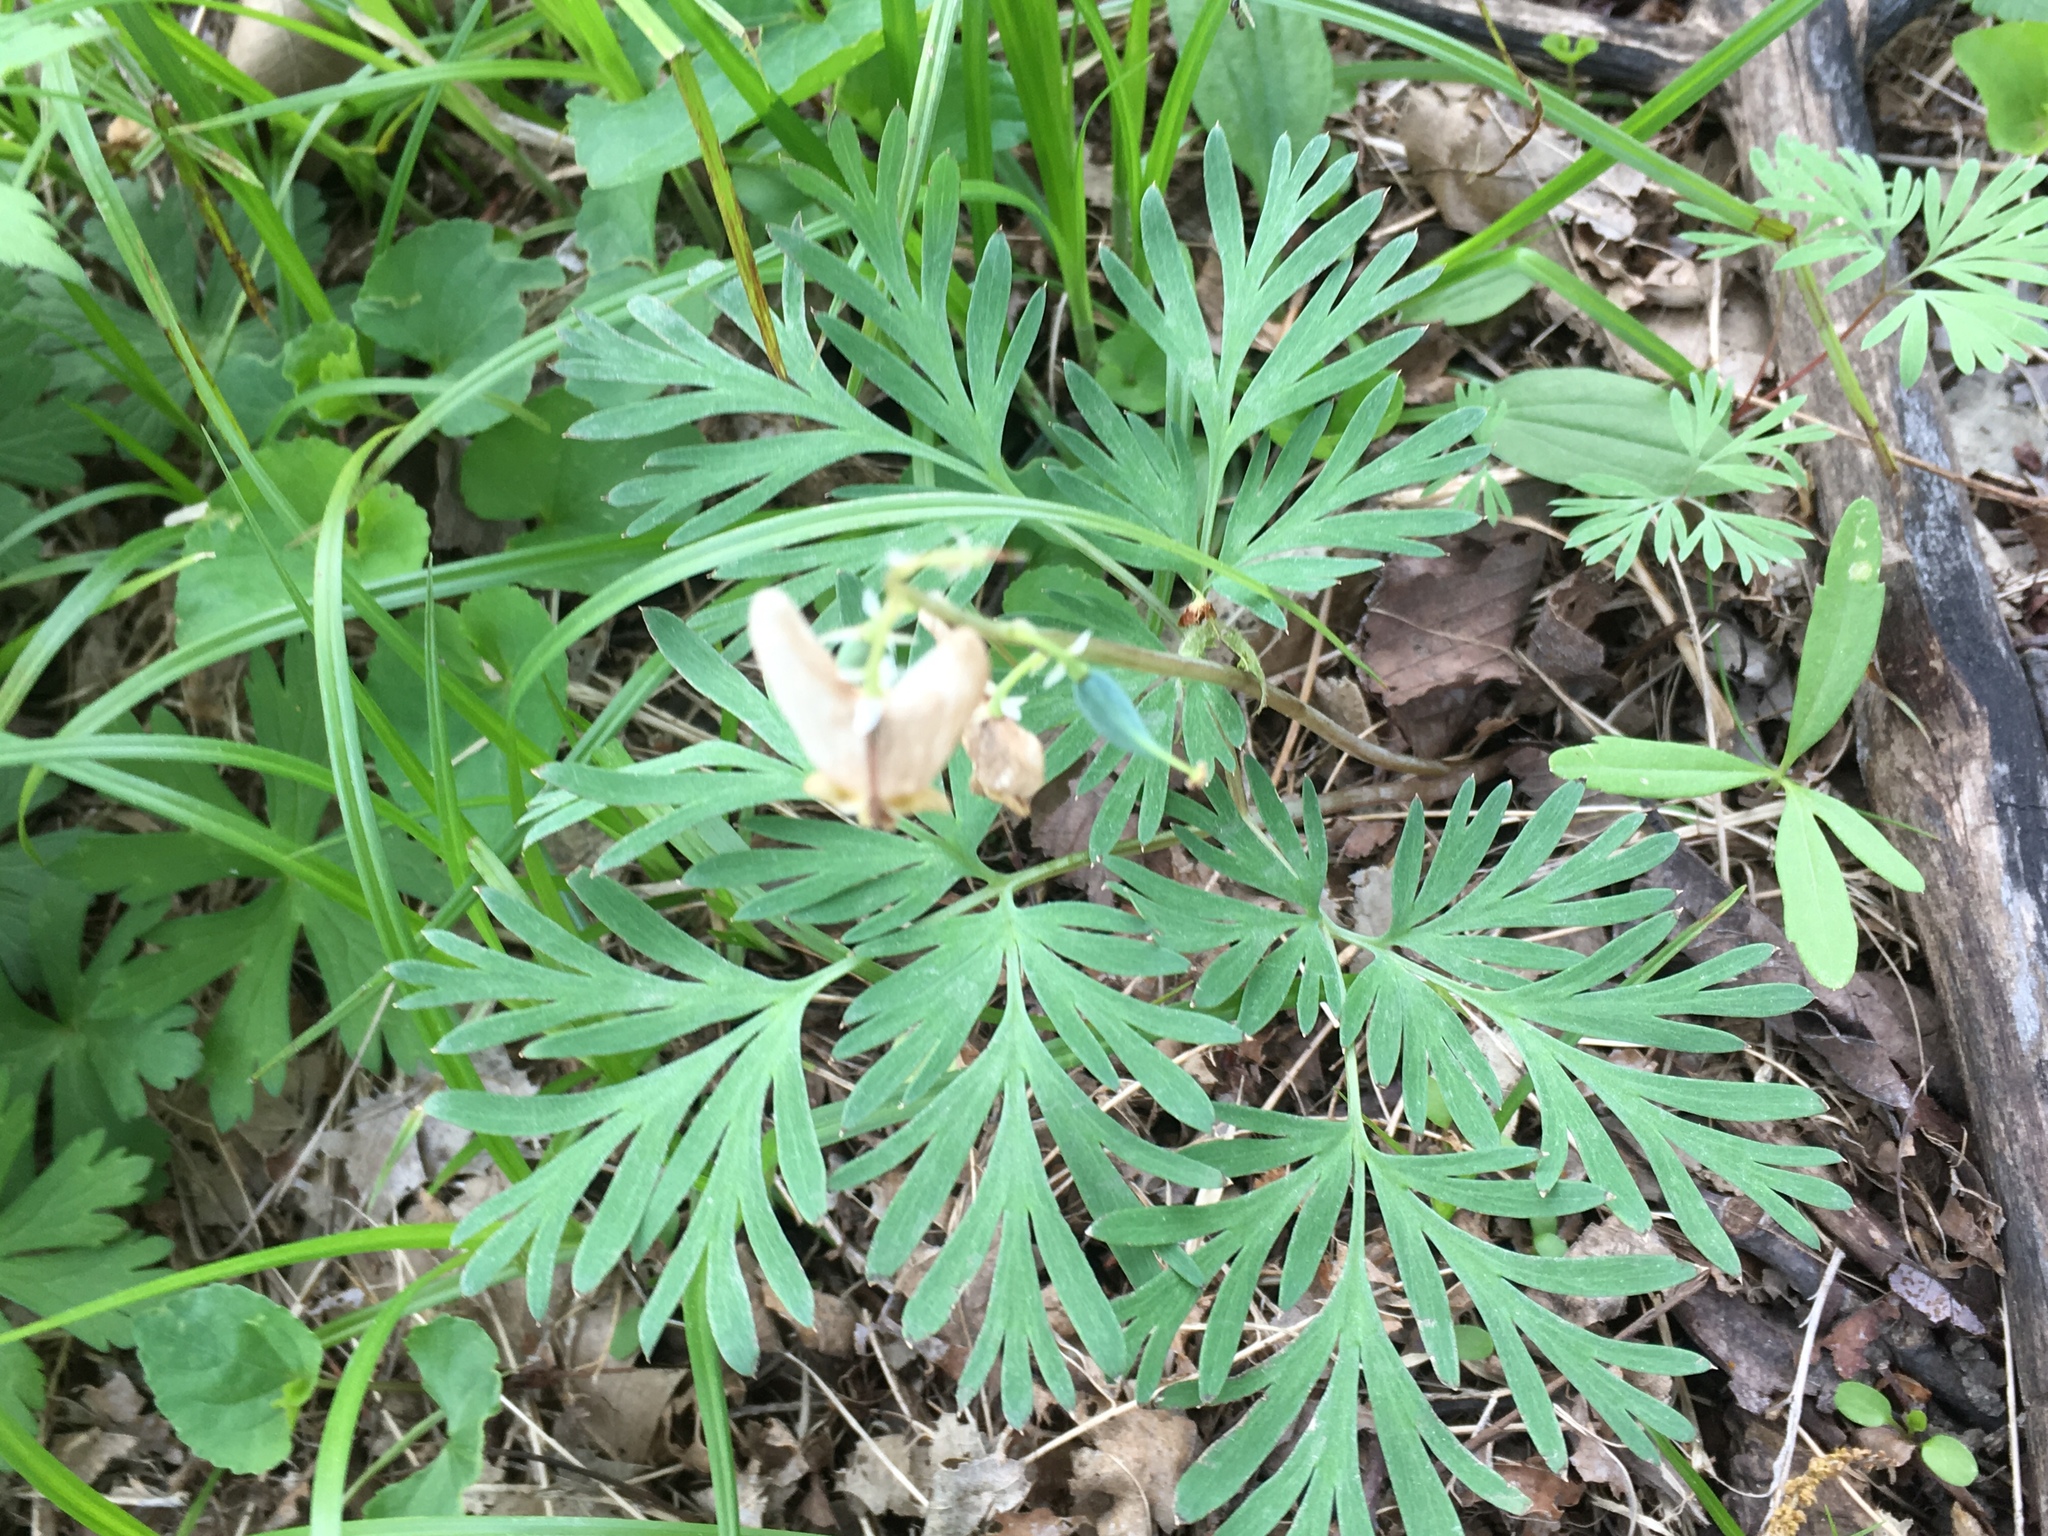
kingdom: Plantae
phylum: Tracheophyta
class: Magnoliopsida
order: Ranunculales
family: Papaveraceae
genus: Dicentra
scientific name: Dicentra cucullaria
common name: Dutchman's breeches
